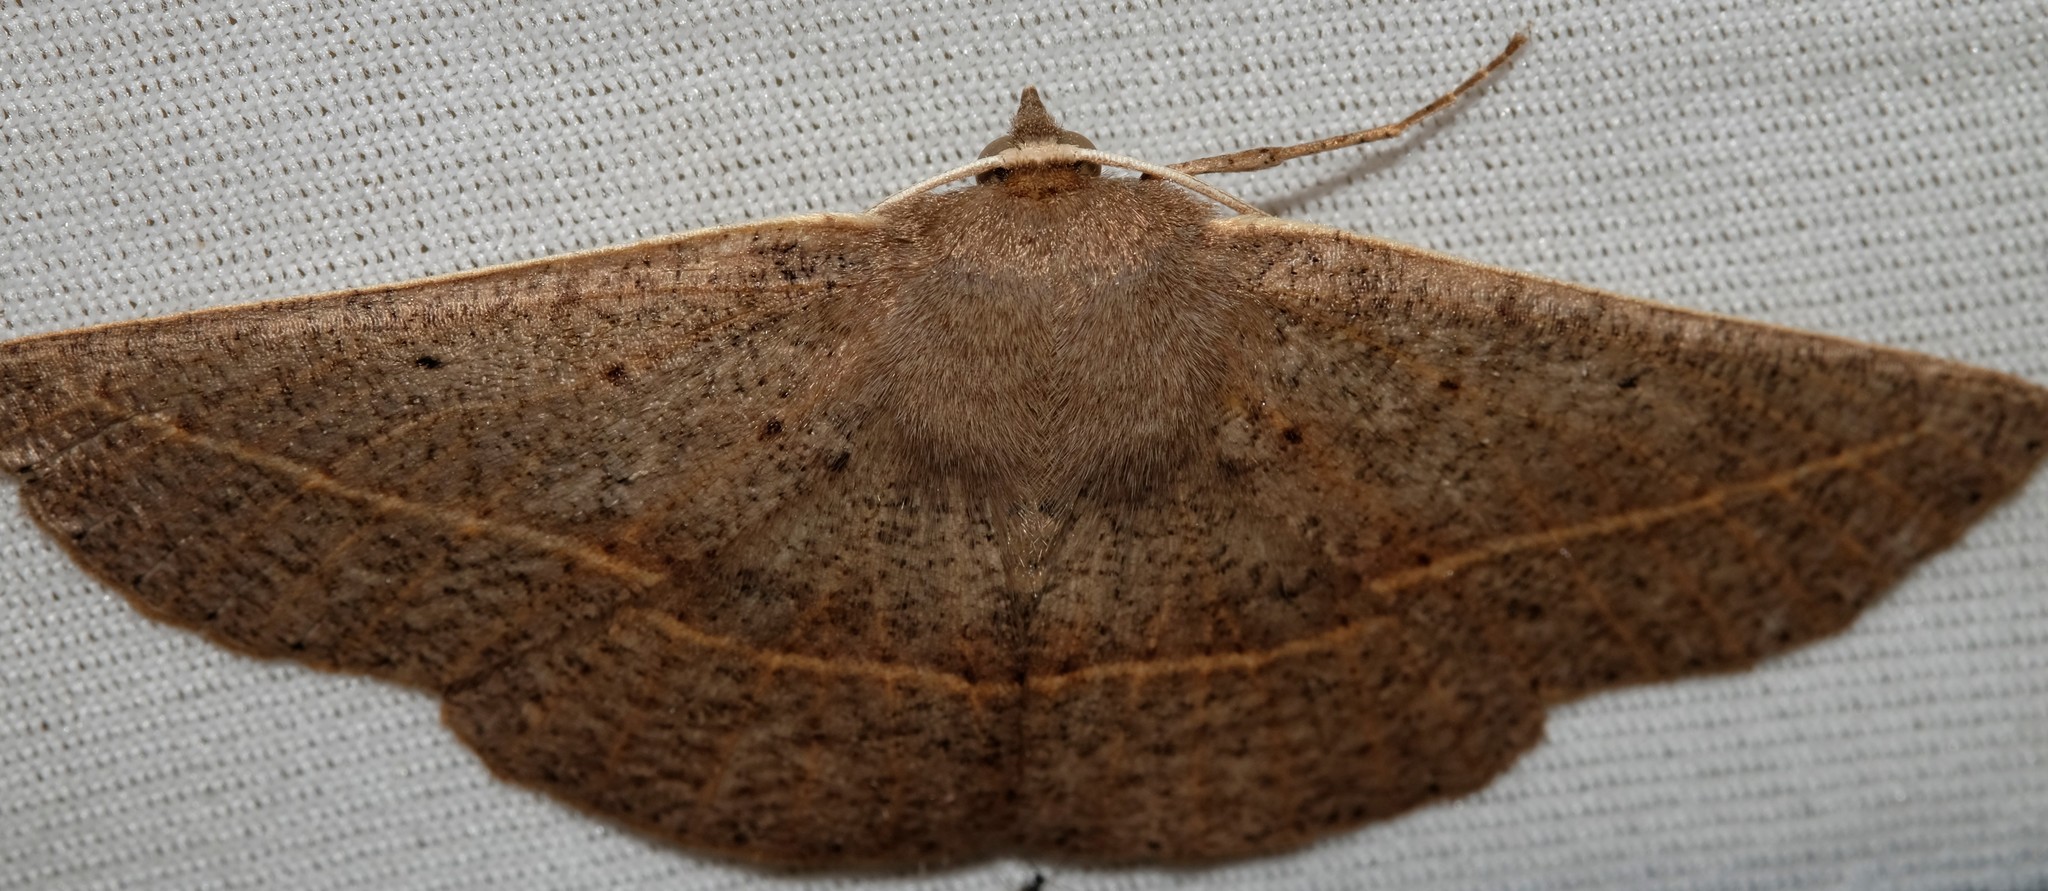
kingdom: Animalia
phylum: Arthropoda
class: Insecta
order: Lepidoptera
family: Geometridae
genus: Idiodes
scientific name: Idiodes siculoides
